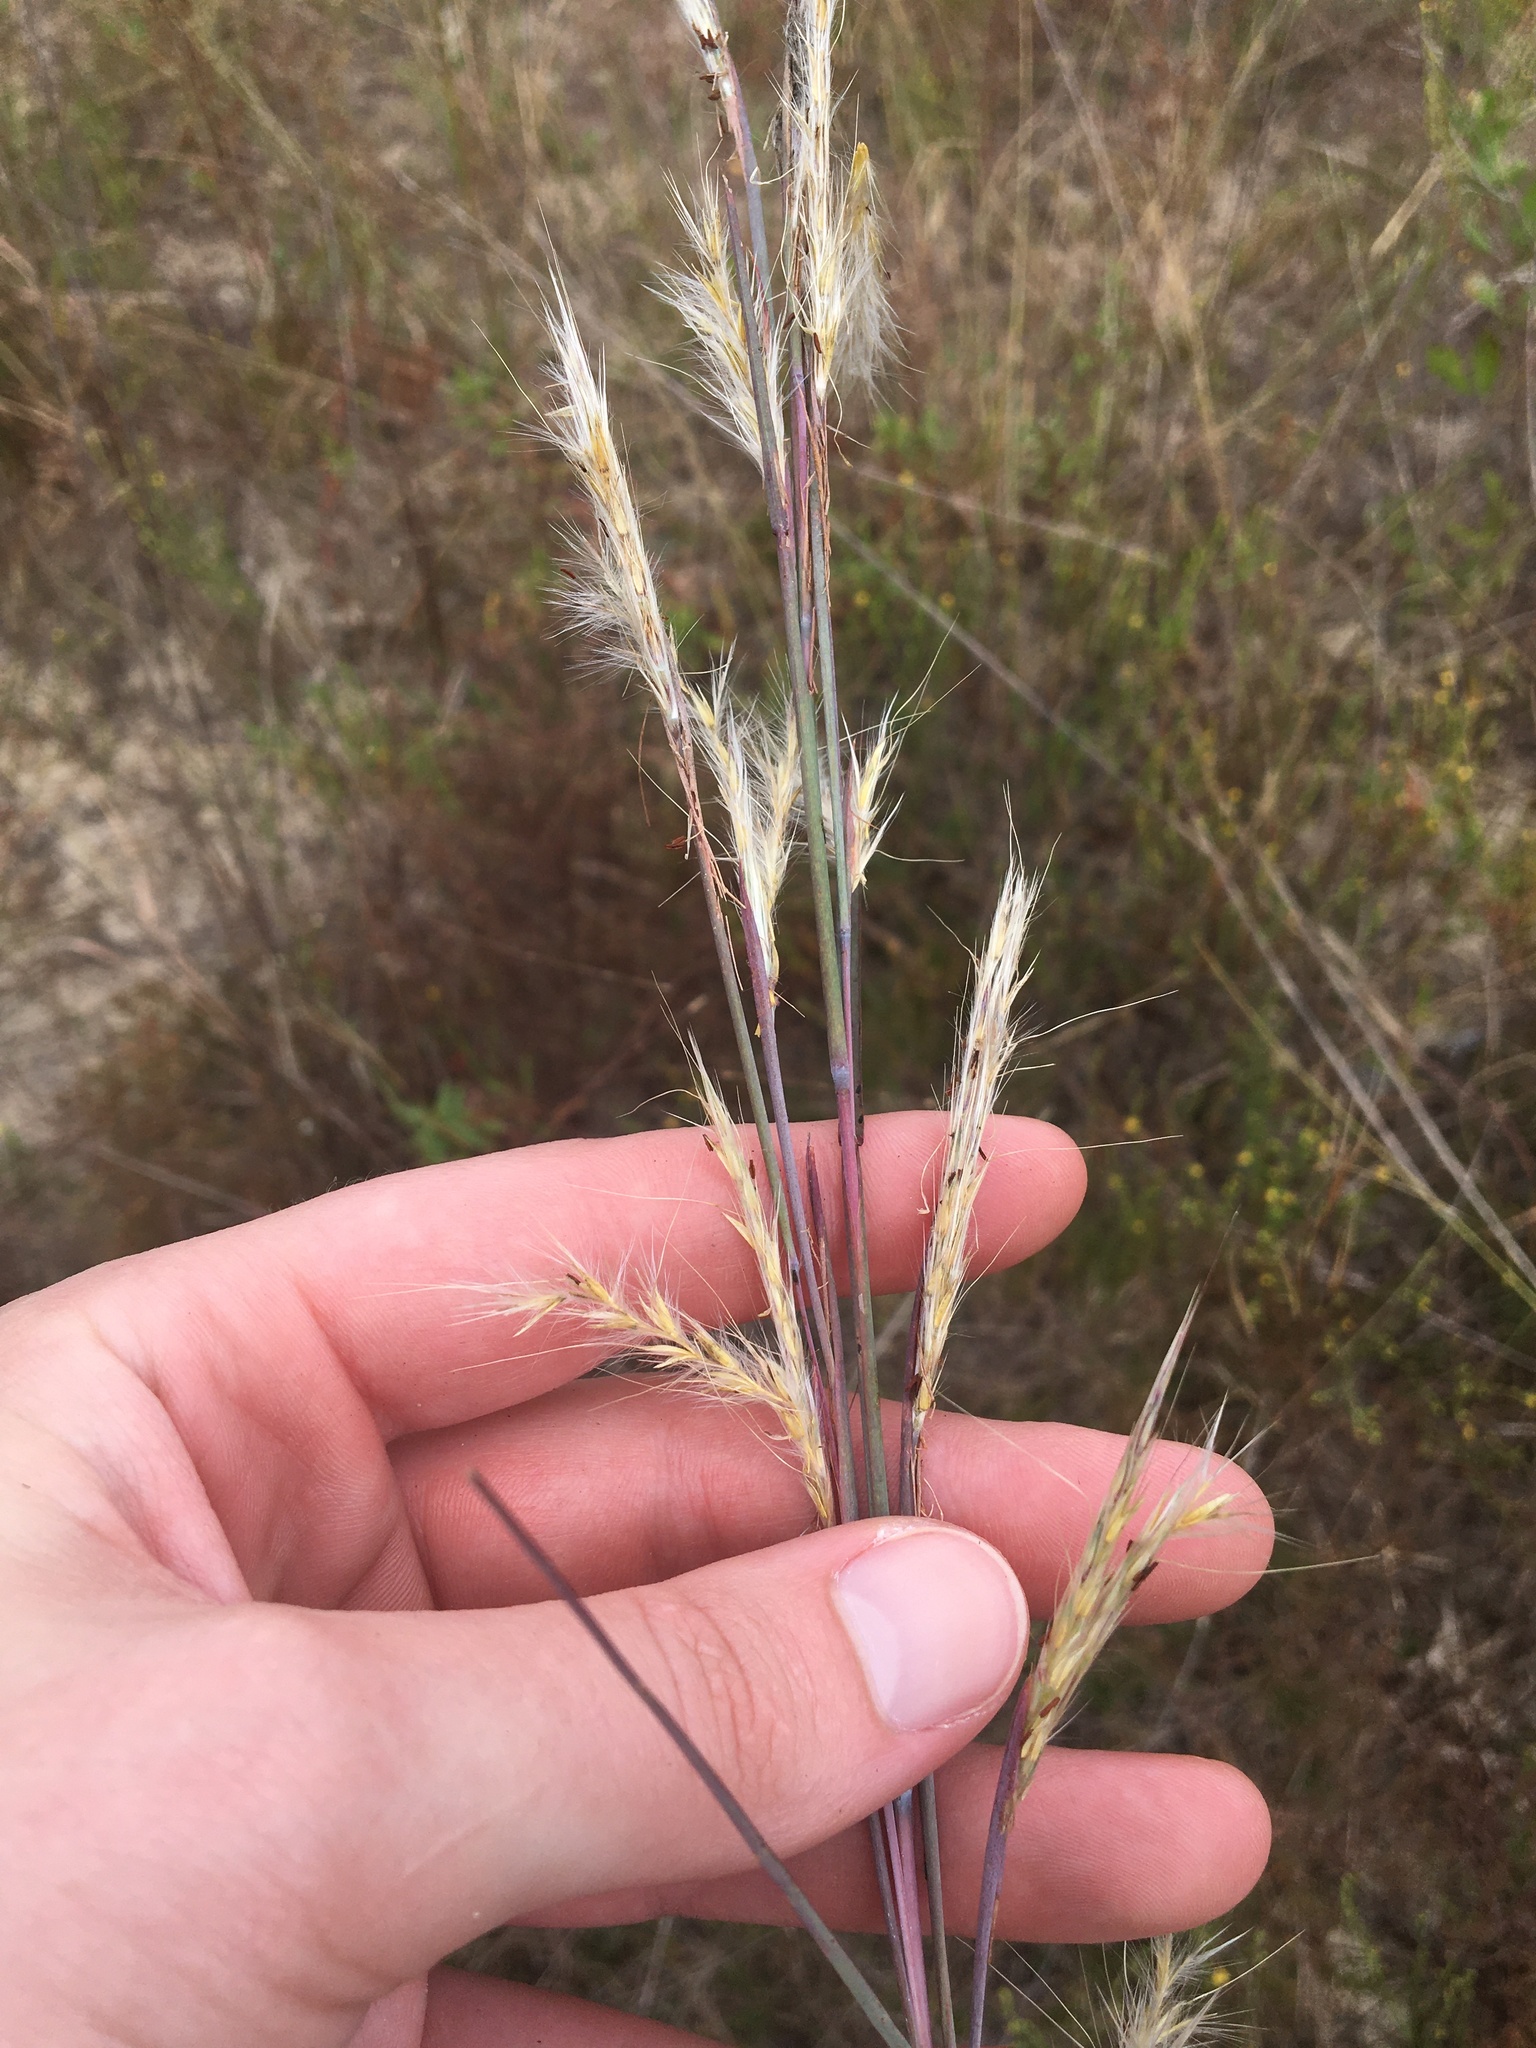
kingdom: Plantae
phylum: Tracheophyta
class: Liliopsida
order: Poales
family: Poaceae
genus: Andropogon
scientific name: Andropogon ternarius
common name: Split bluestem
